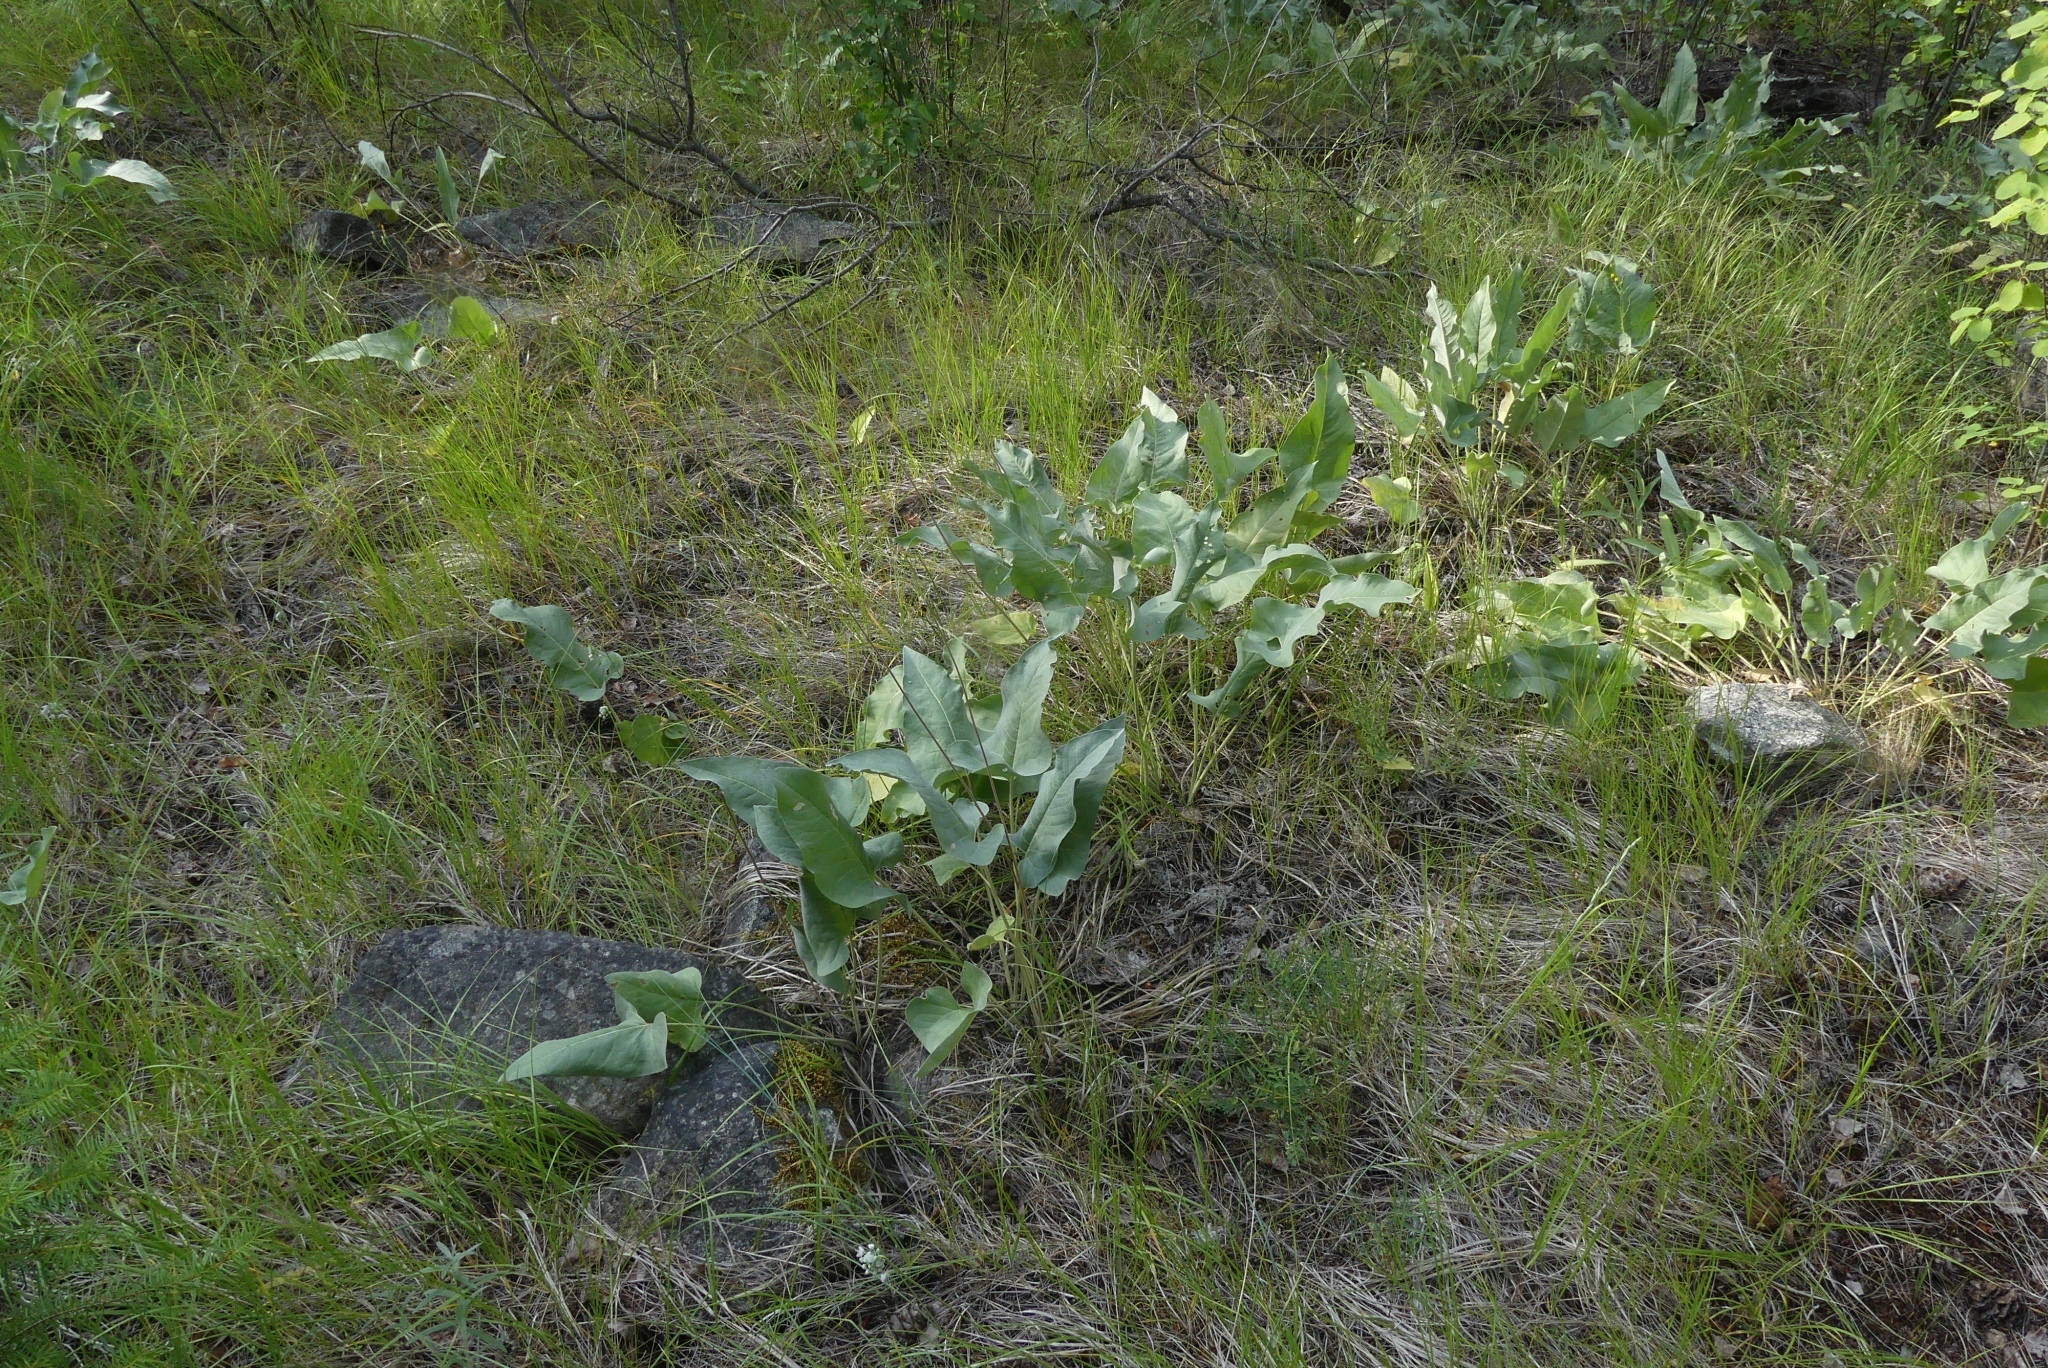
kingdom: Plantae
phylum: Tracheophyta
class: Magnoliopsida
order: Asterales
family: Asteraceae
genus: Wyethia
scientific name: Wyethia sagittata
